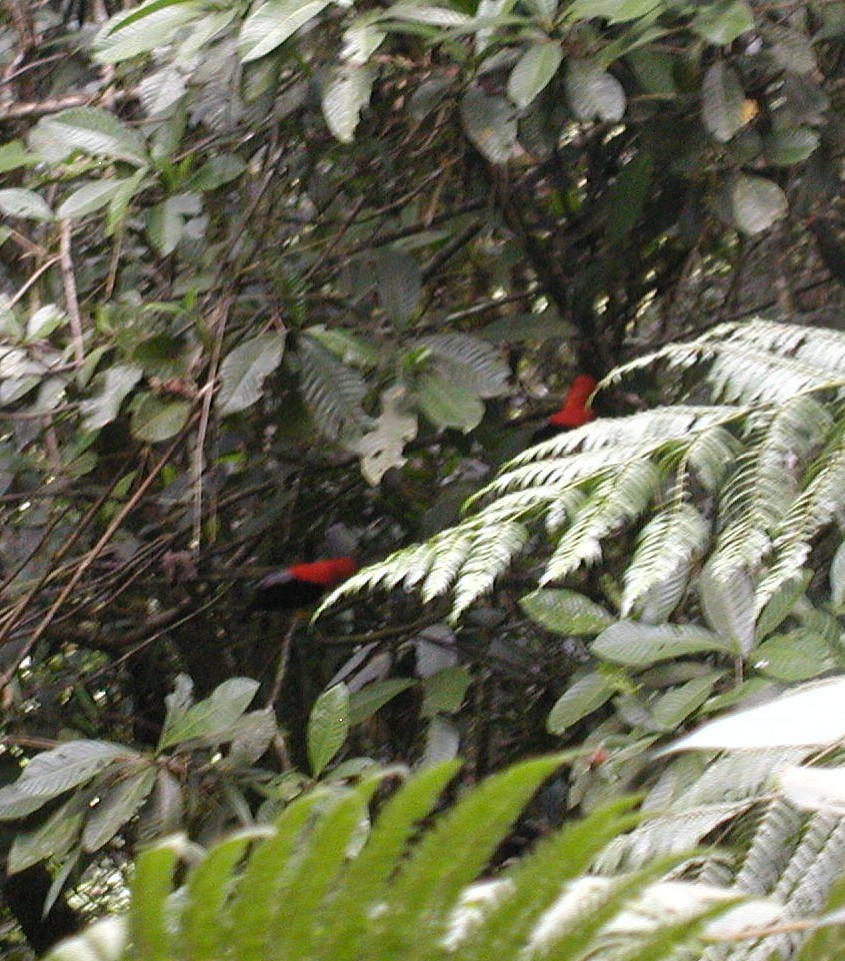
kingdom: Animalia
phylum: Chordata
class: Aves
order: Passeriformes
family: Cotingidae
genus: Rupicola
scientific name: Rupicola peruvianus
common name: Andean cock-of-the-rock
